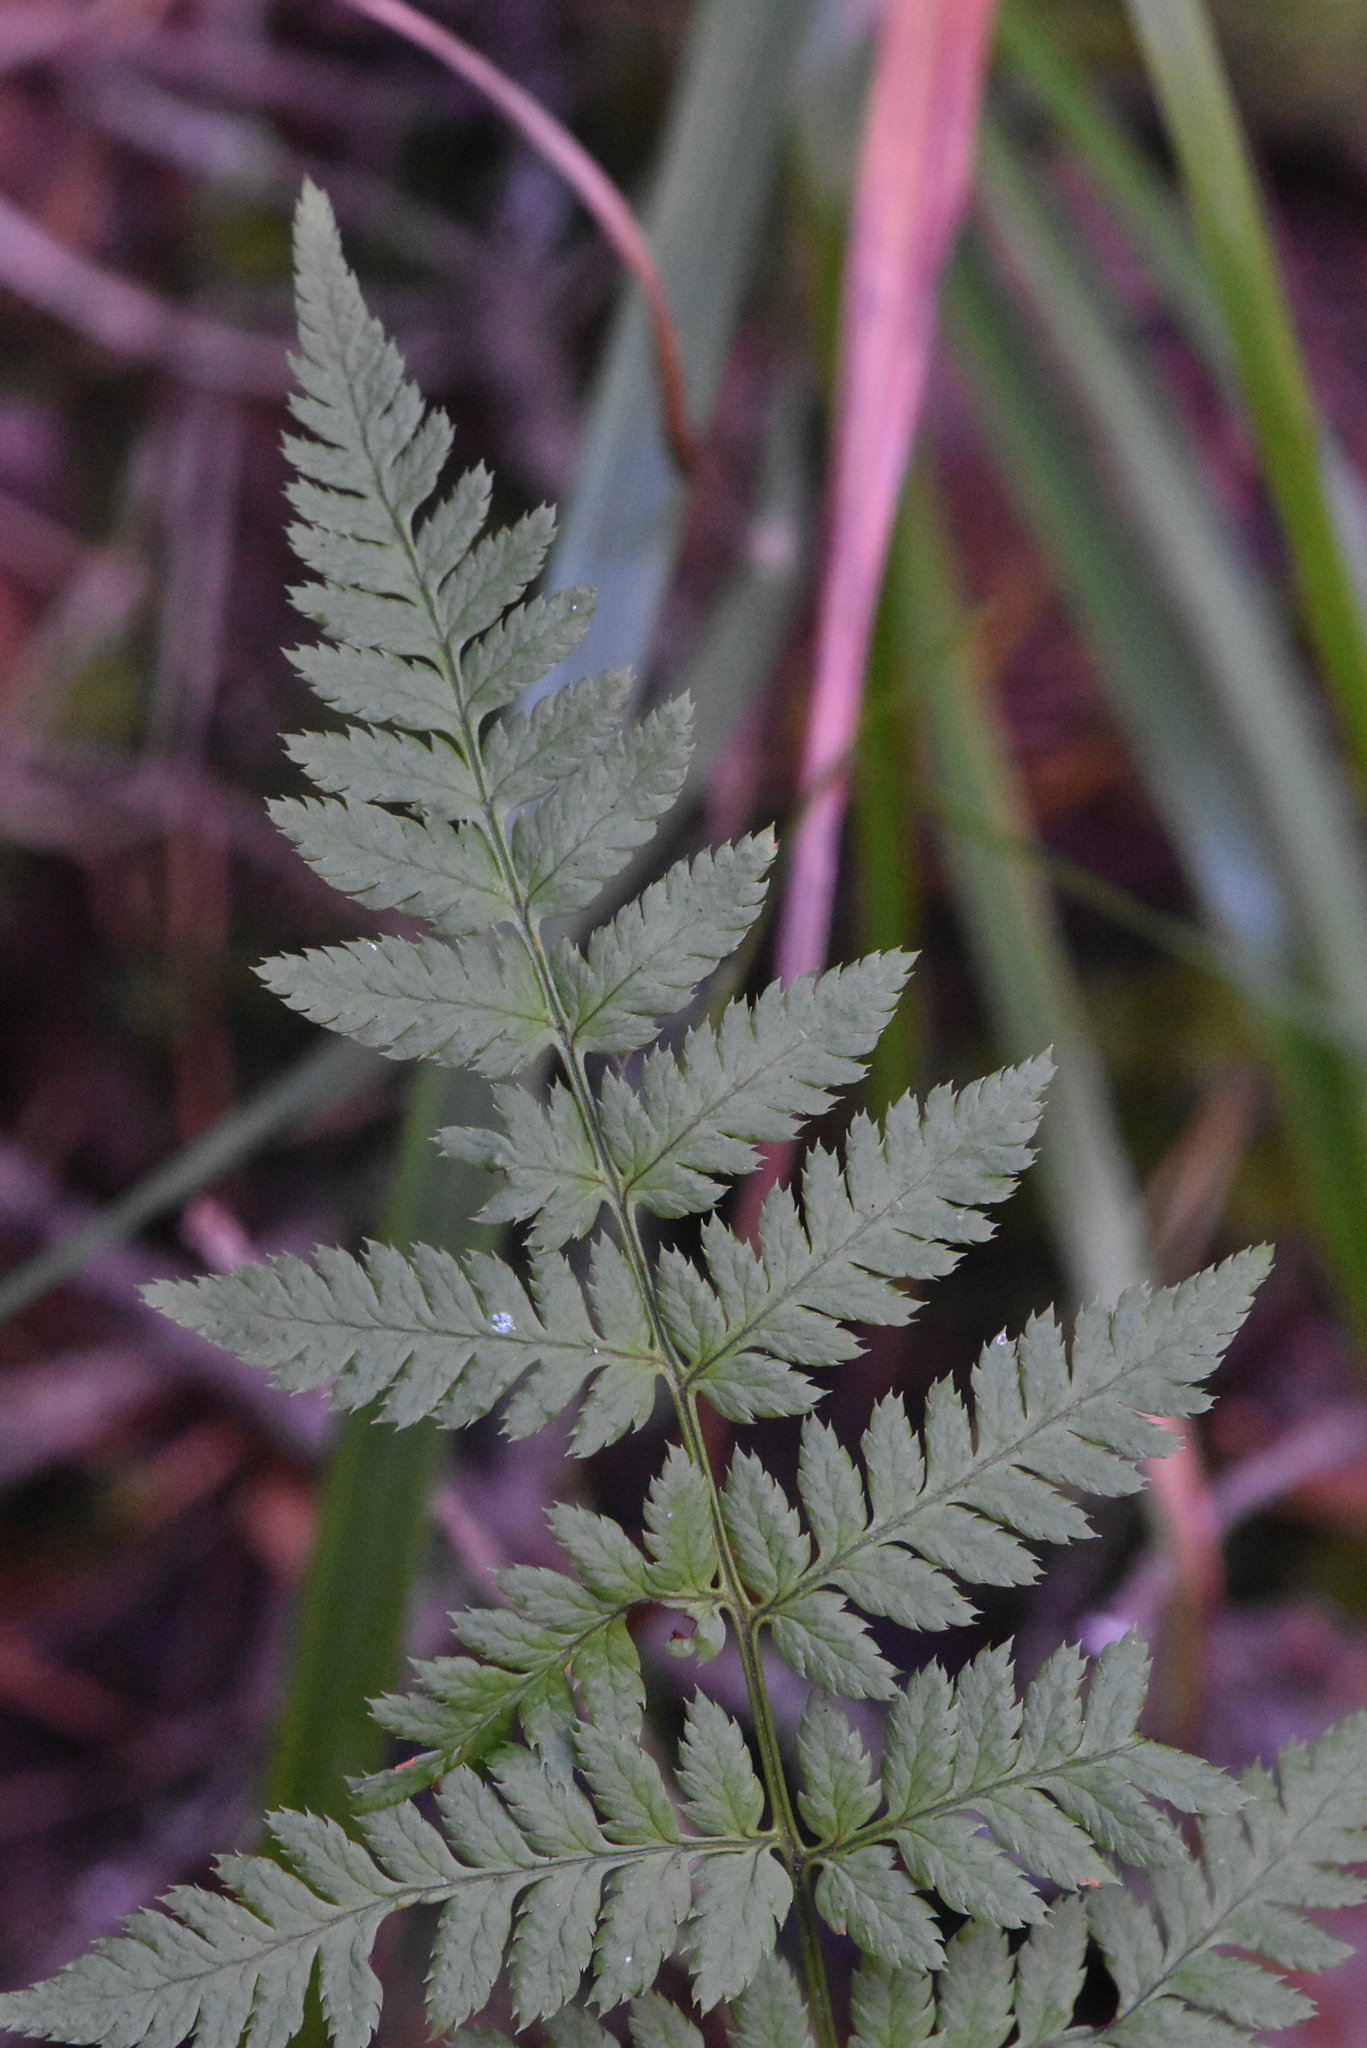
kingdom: Plantae
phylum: Tracheophyta
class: Polypodiopsida
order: Polypodiales
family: Dryopteridaceae
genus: Dryopteris
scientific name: Dryopteris carthusiana
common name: Narrow buckler-fern
